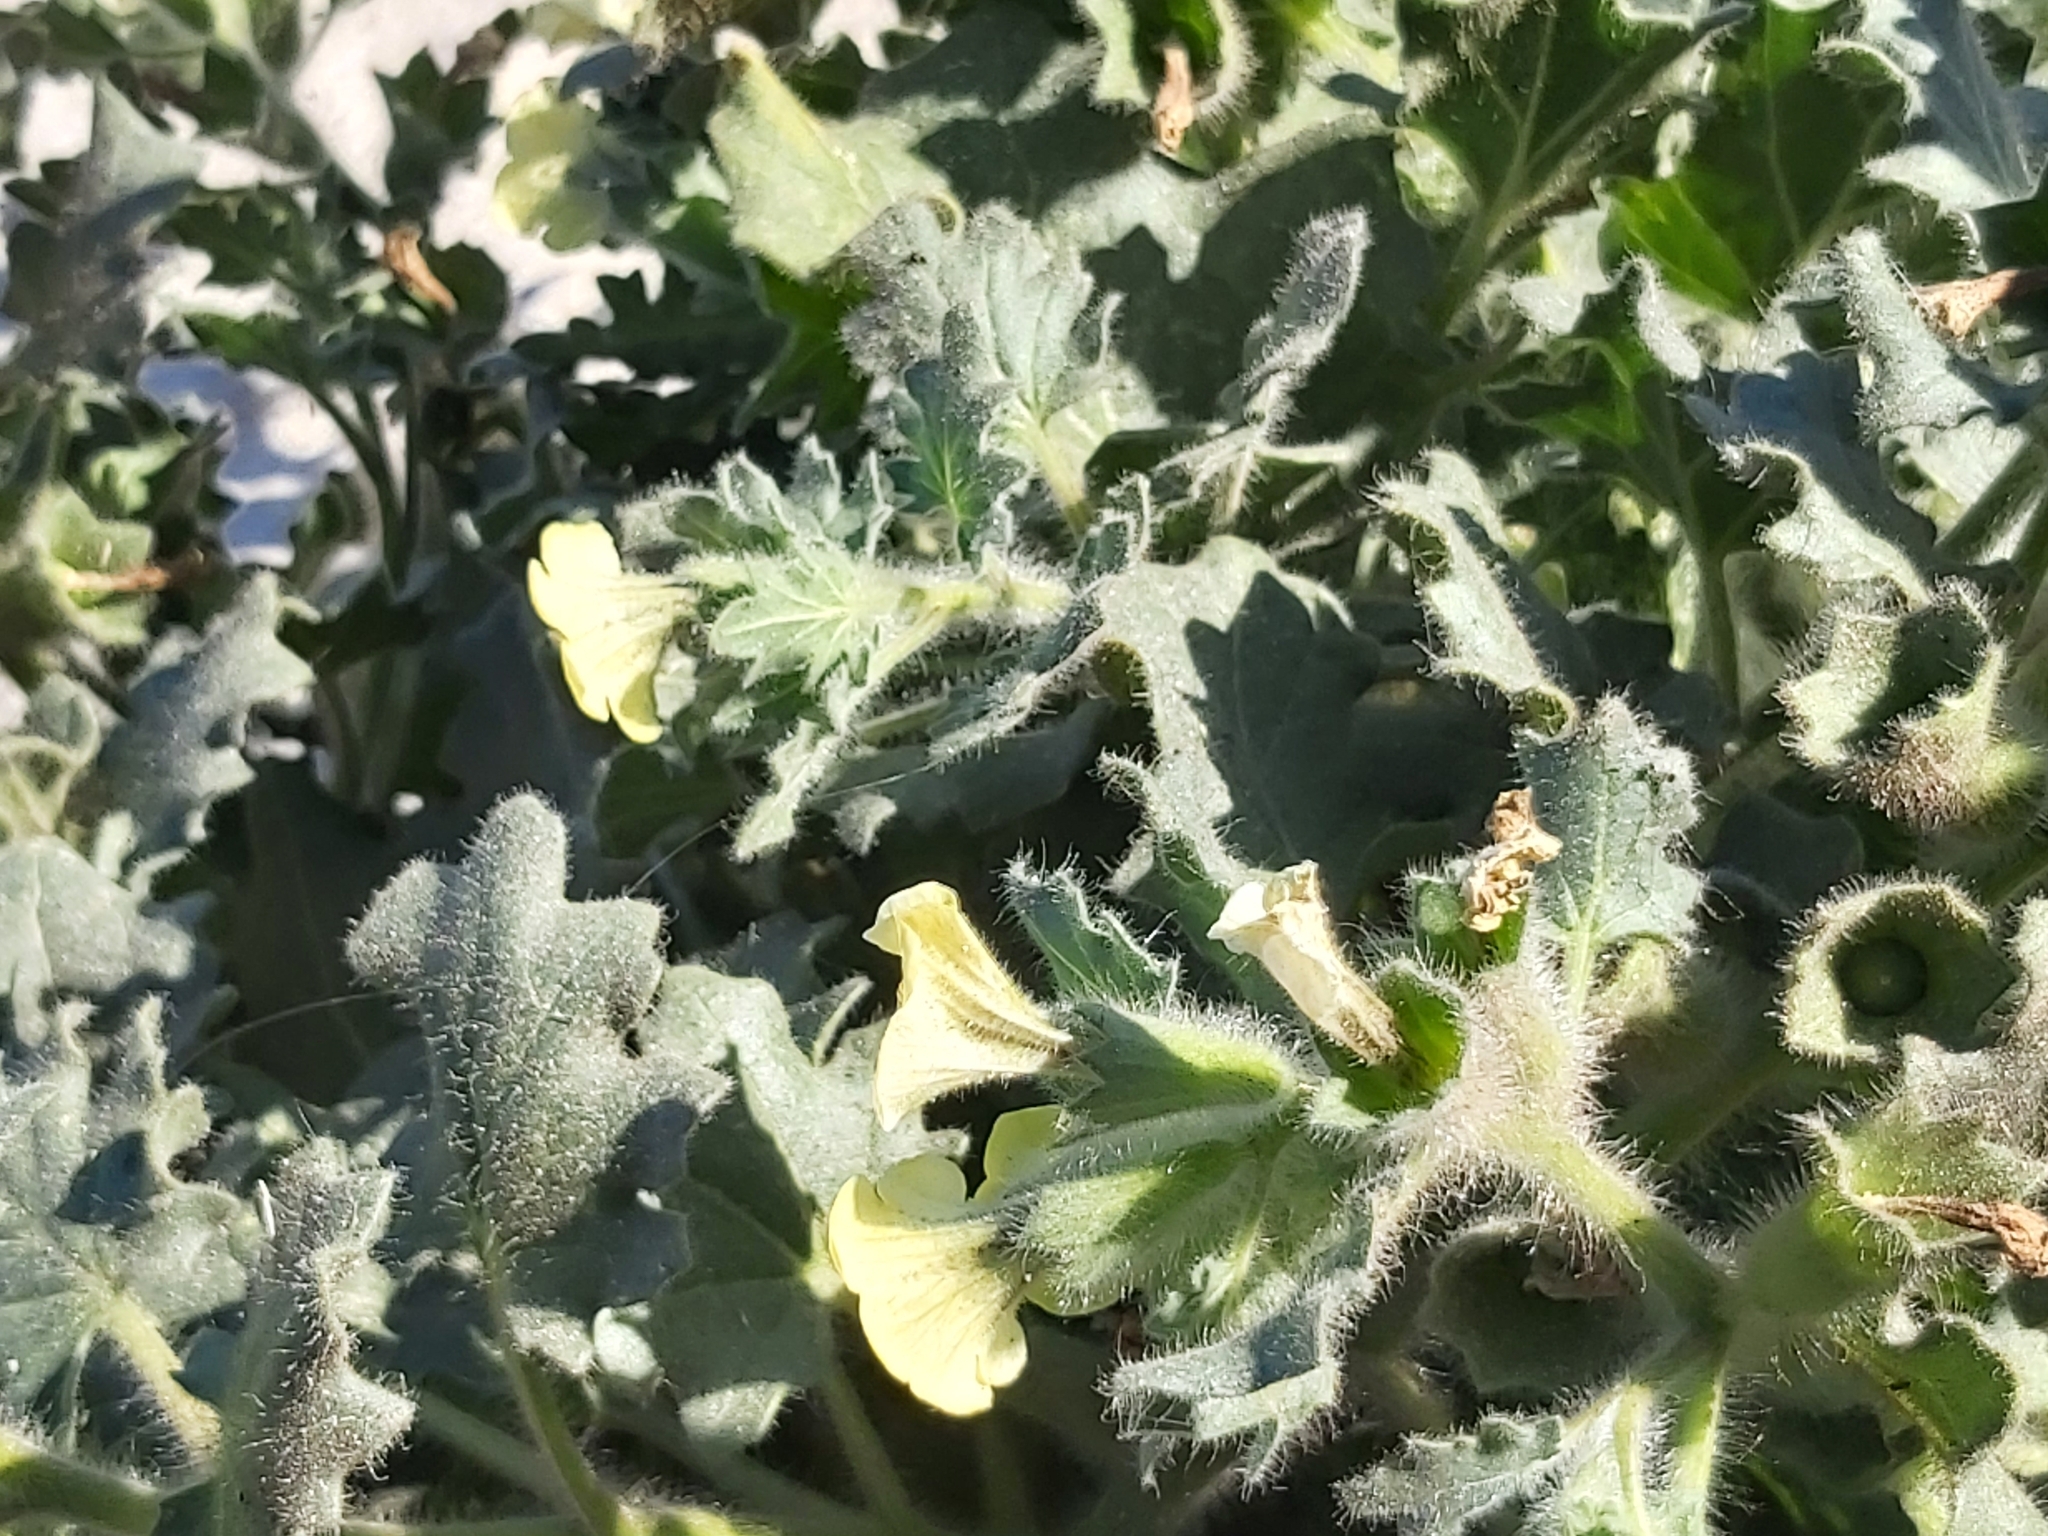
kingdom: Plantae
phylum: Tracheophyta
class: Magnoliopsida
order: Solanales
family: Solanaceae
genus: Hyoscyamus
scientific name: Hyoscyamus albus
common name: White henbane
